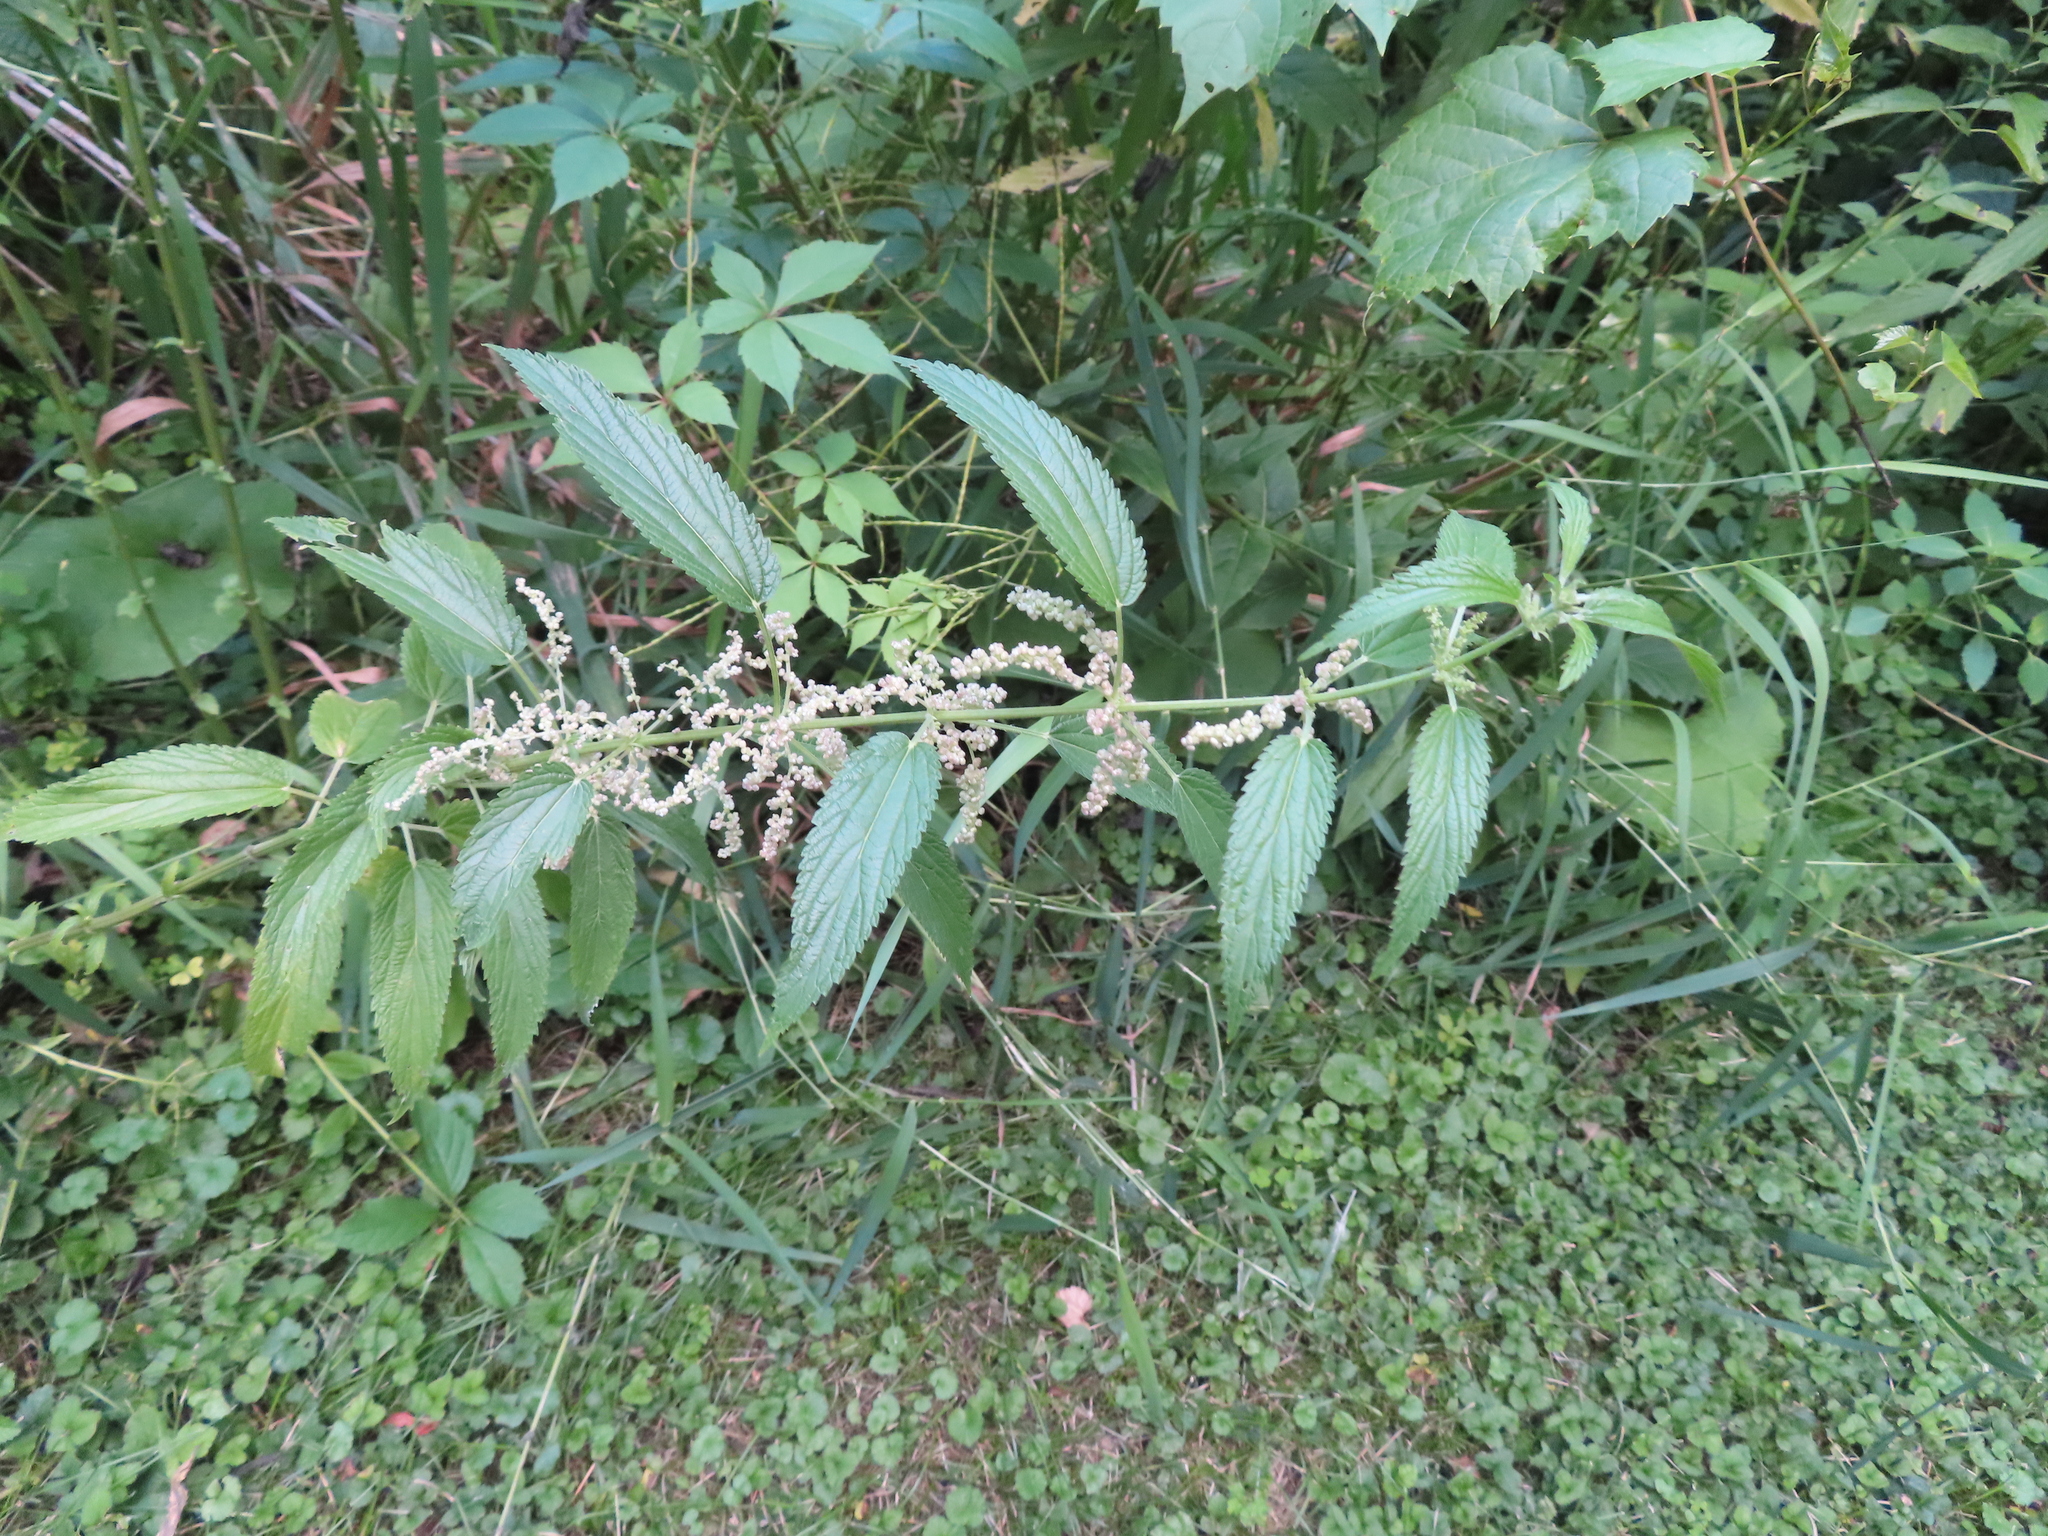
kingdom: Plantae
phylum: Tracheophyta
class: Magnoliopsida
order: Rosales
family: Urticaceae
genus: Urtica
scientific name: Urtica gracilis
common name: Slender stinging nettle
